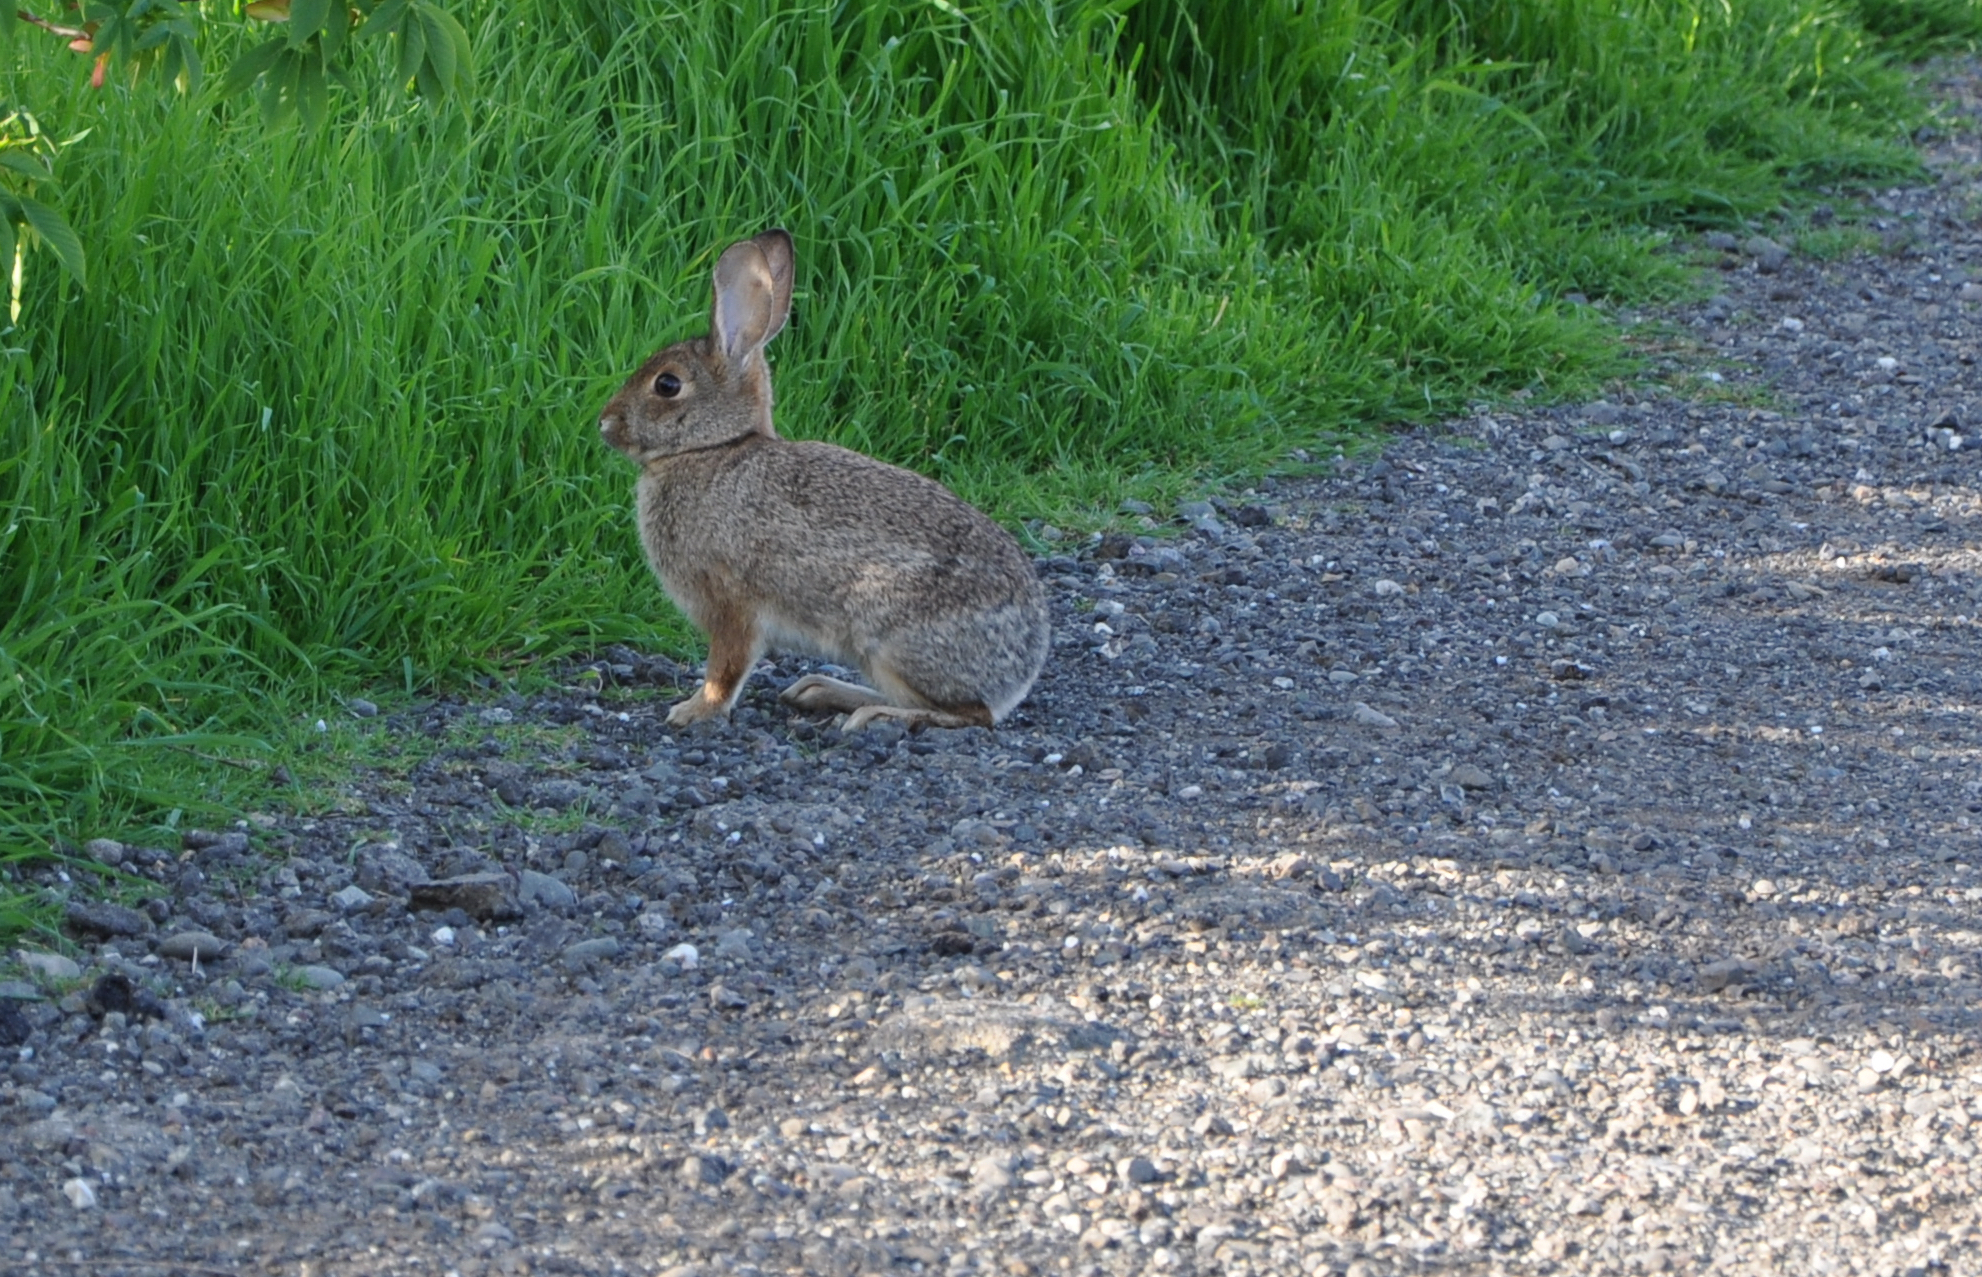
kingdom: Animalia
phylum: Chordata
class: Mammalia
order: Lagomorpha
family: Leporidae
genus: Sylvilagus
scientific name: Sylvilagus audubonii
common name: Desert cottontail
